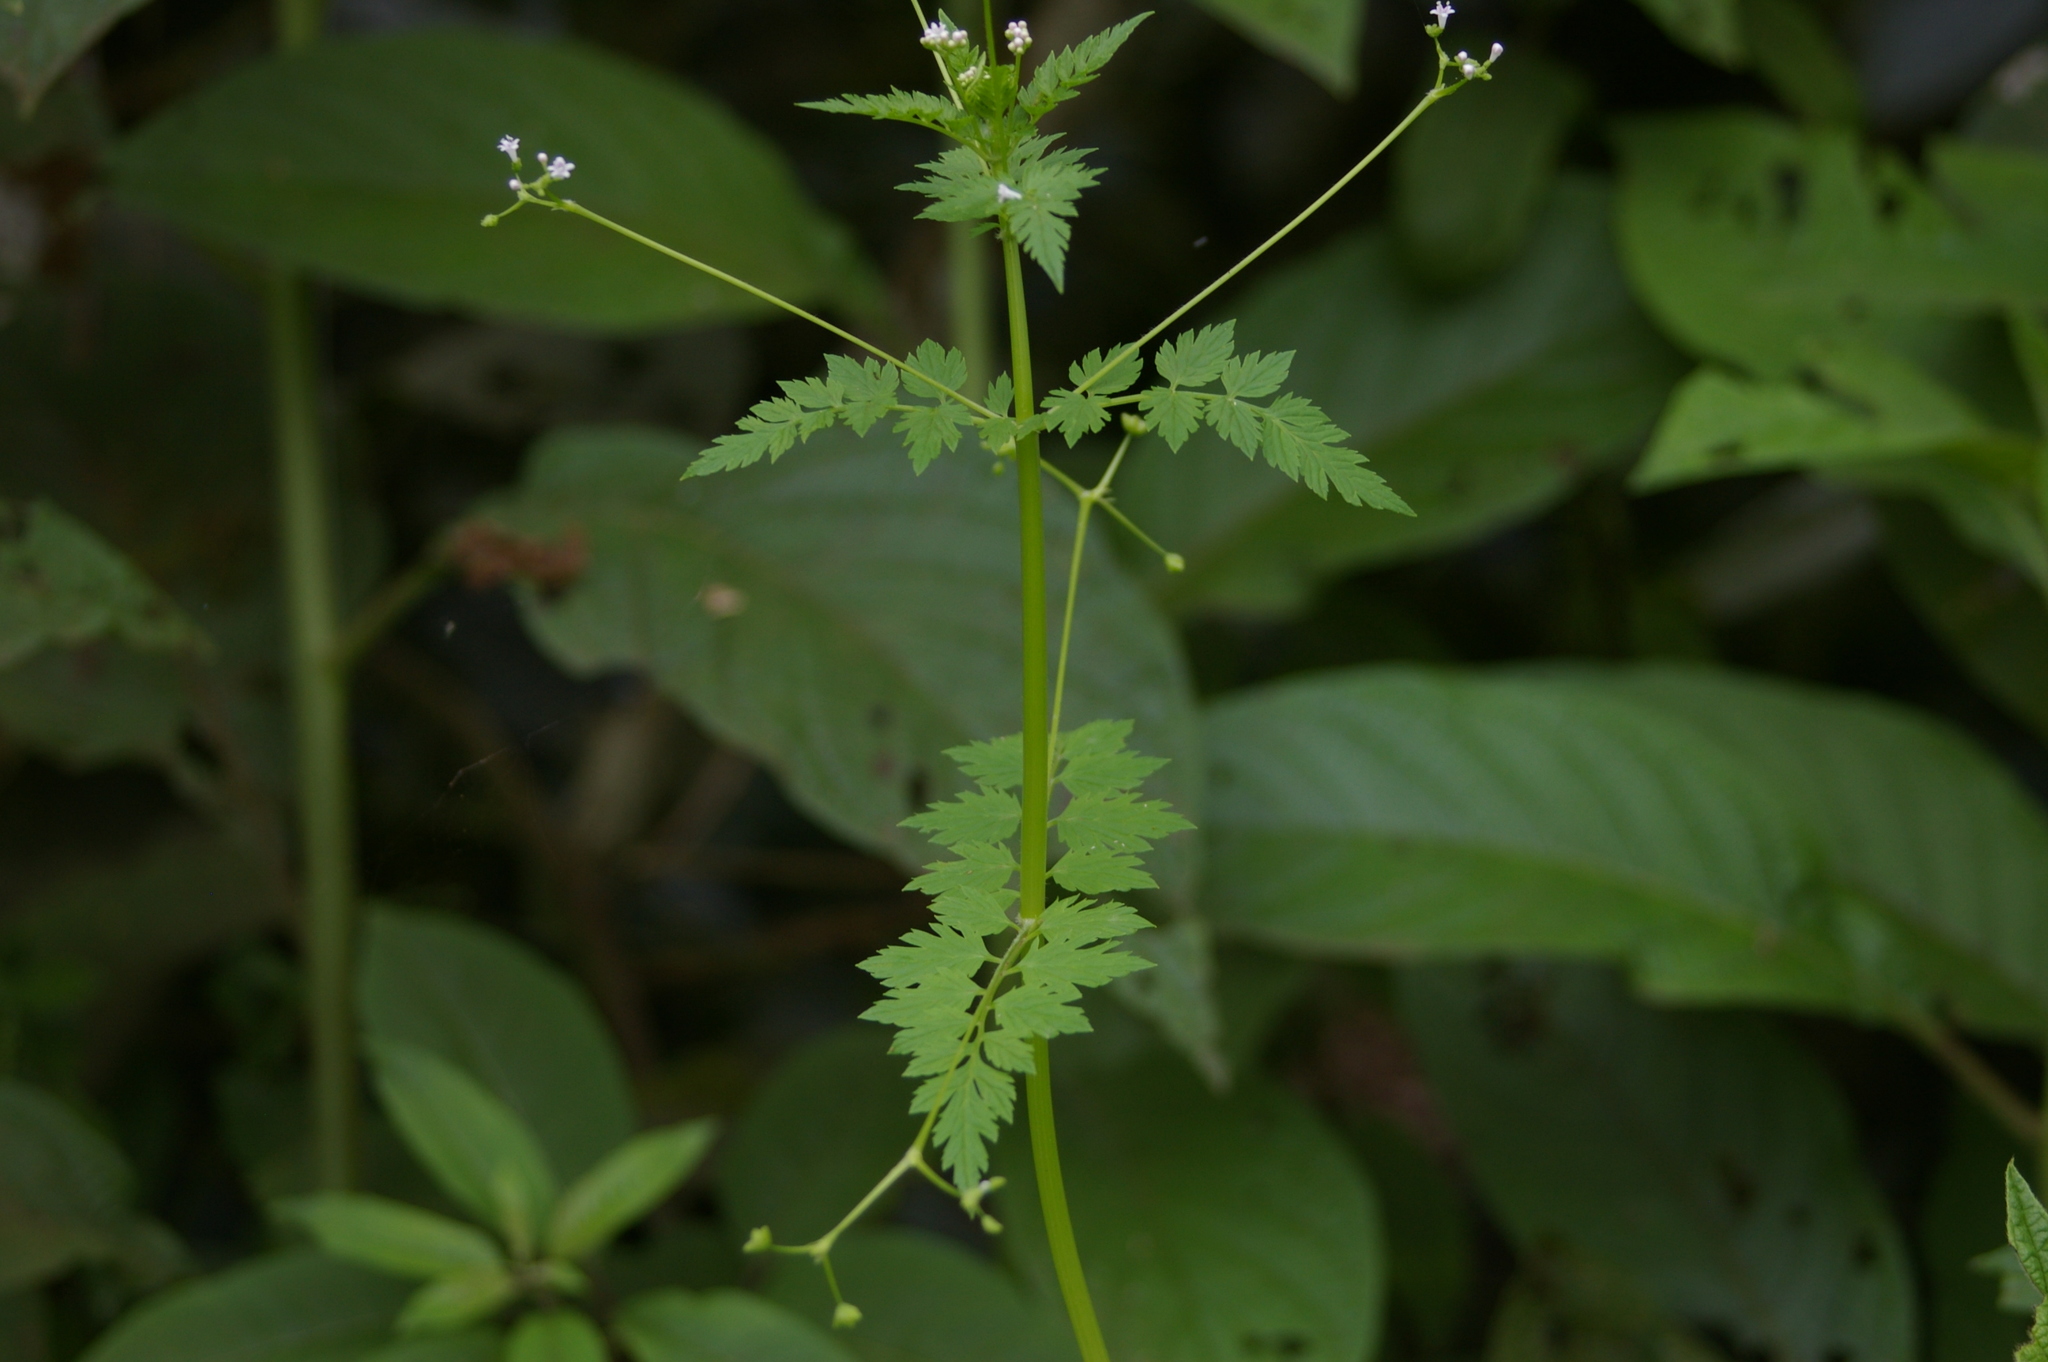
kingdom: Plantae
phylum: Tracheophyta
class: Magnoliopsida
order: Dipsacales
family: Caprifoliaceae
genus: Valeriana
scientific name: Valeriana chaerophylloides
